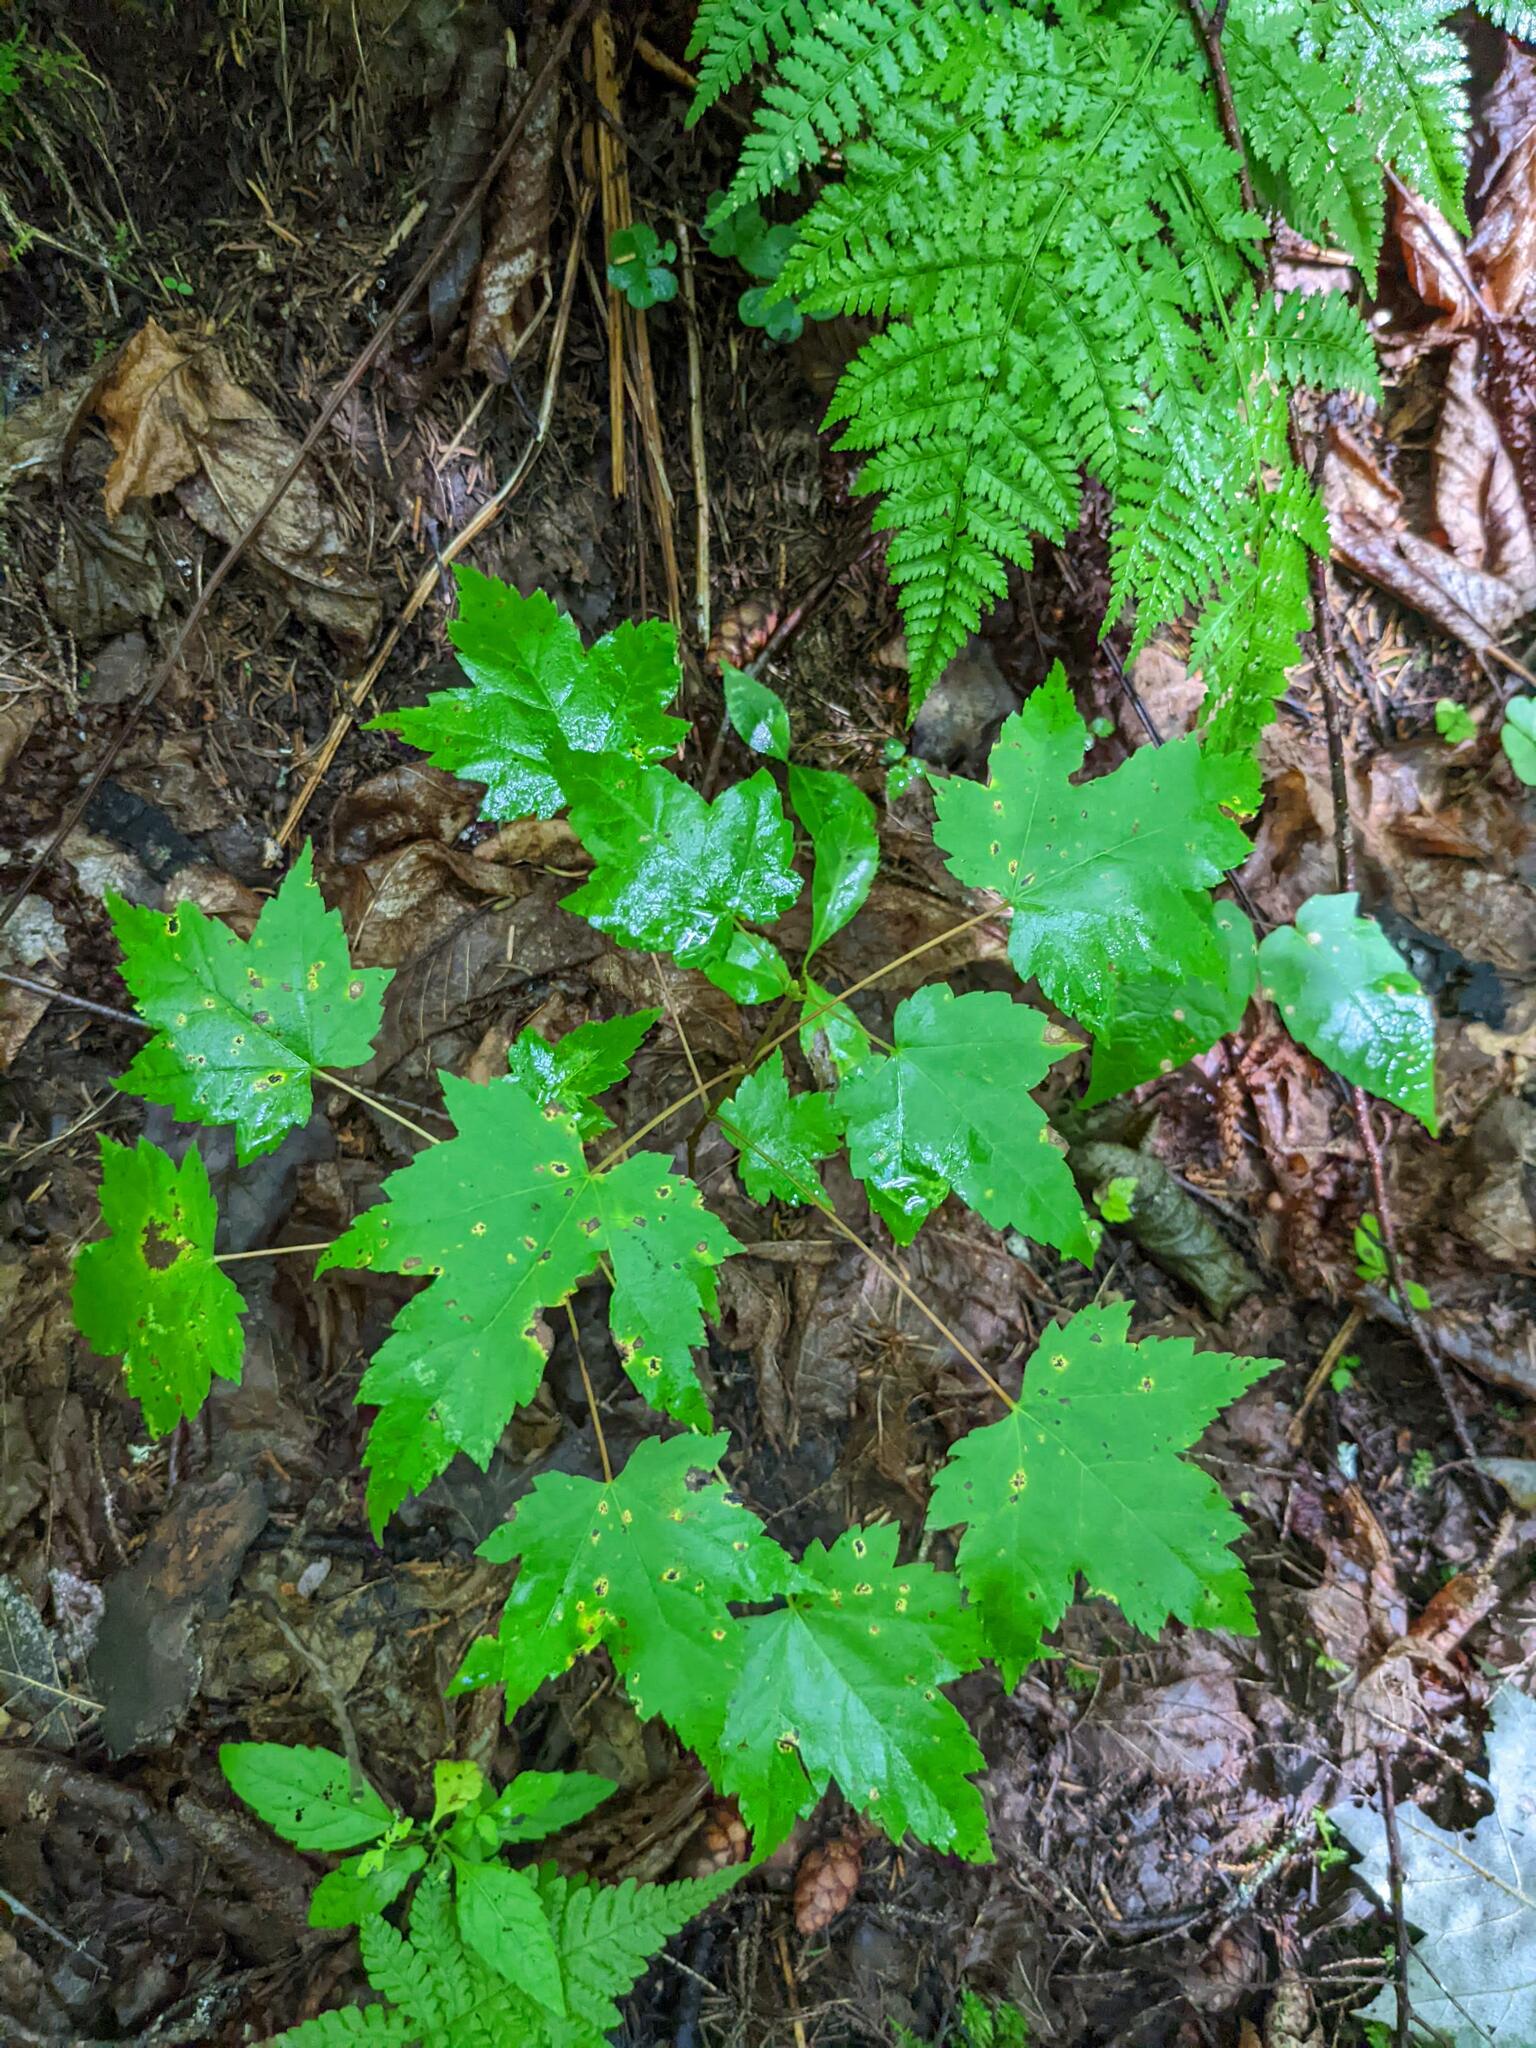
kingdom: Plantae
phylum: Tracheophyta
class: Magnoliopsida
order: Sapindales
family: Sapindaceae
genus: Acer
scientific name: Acer rubrum
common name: Red maple
